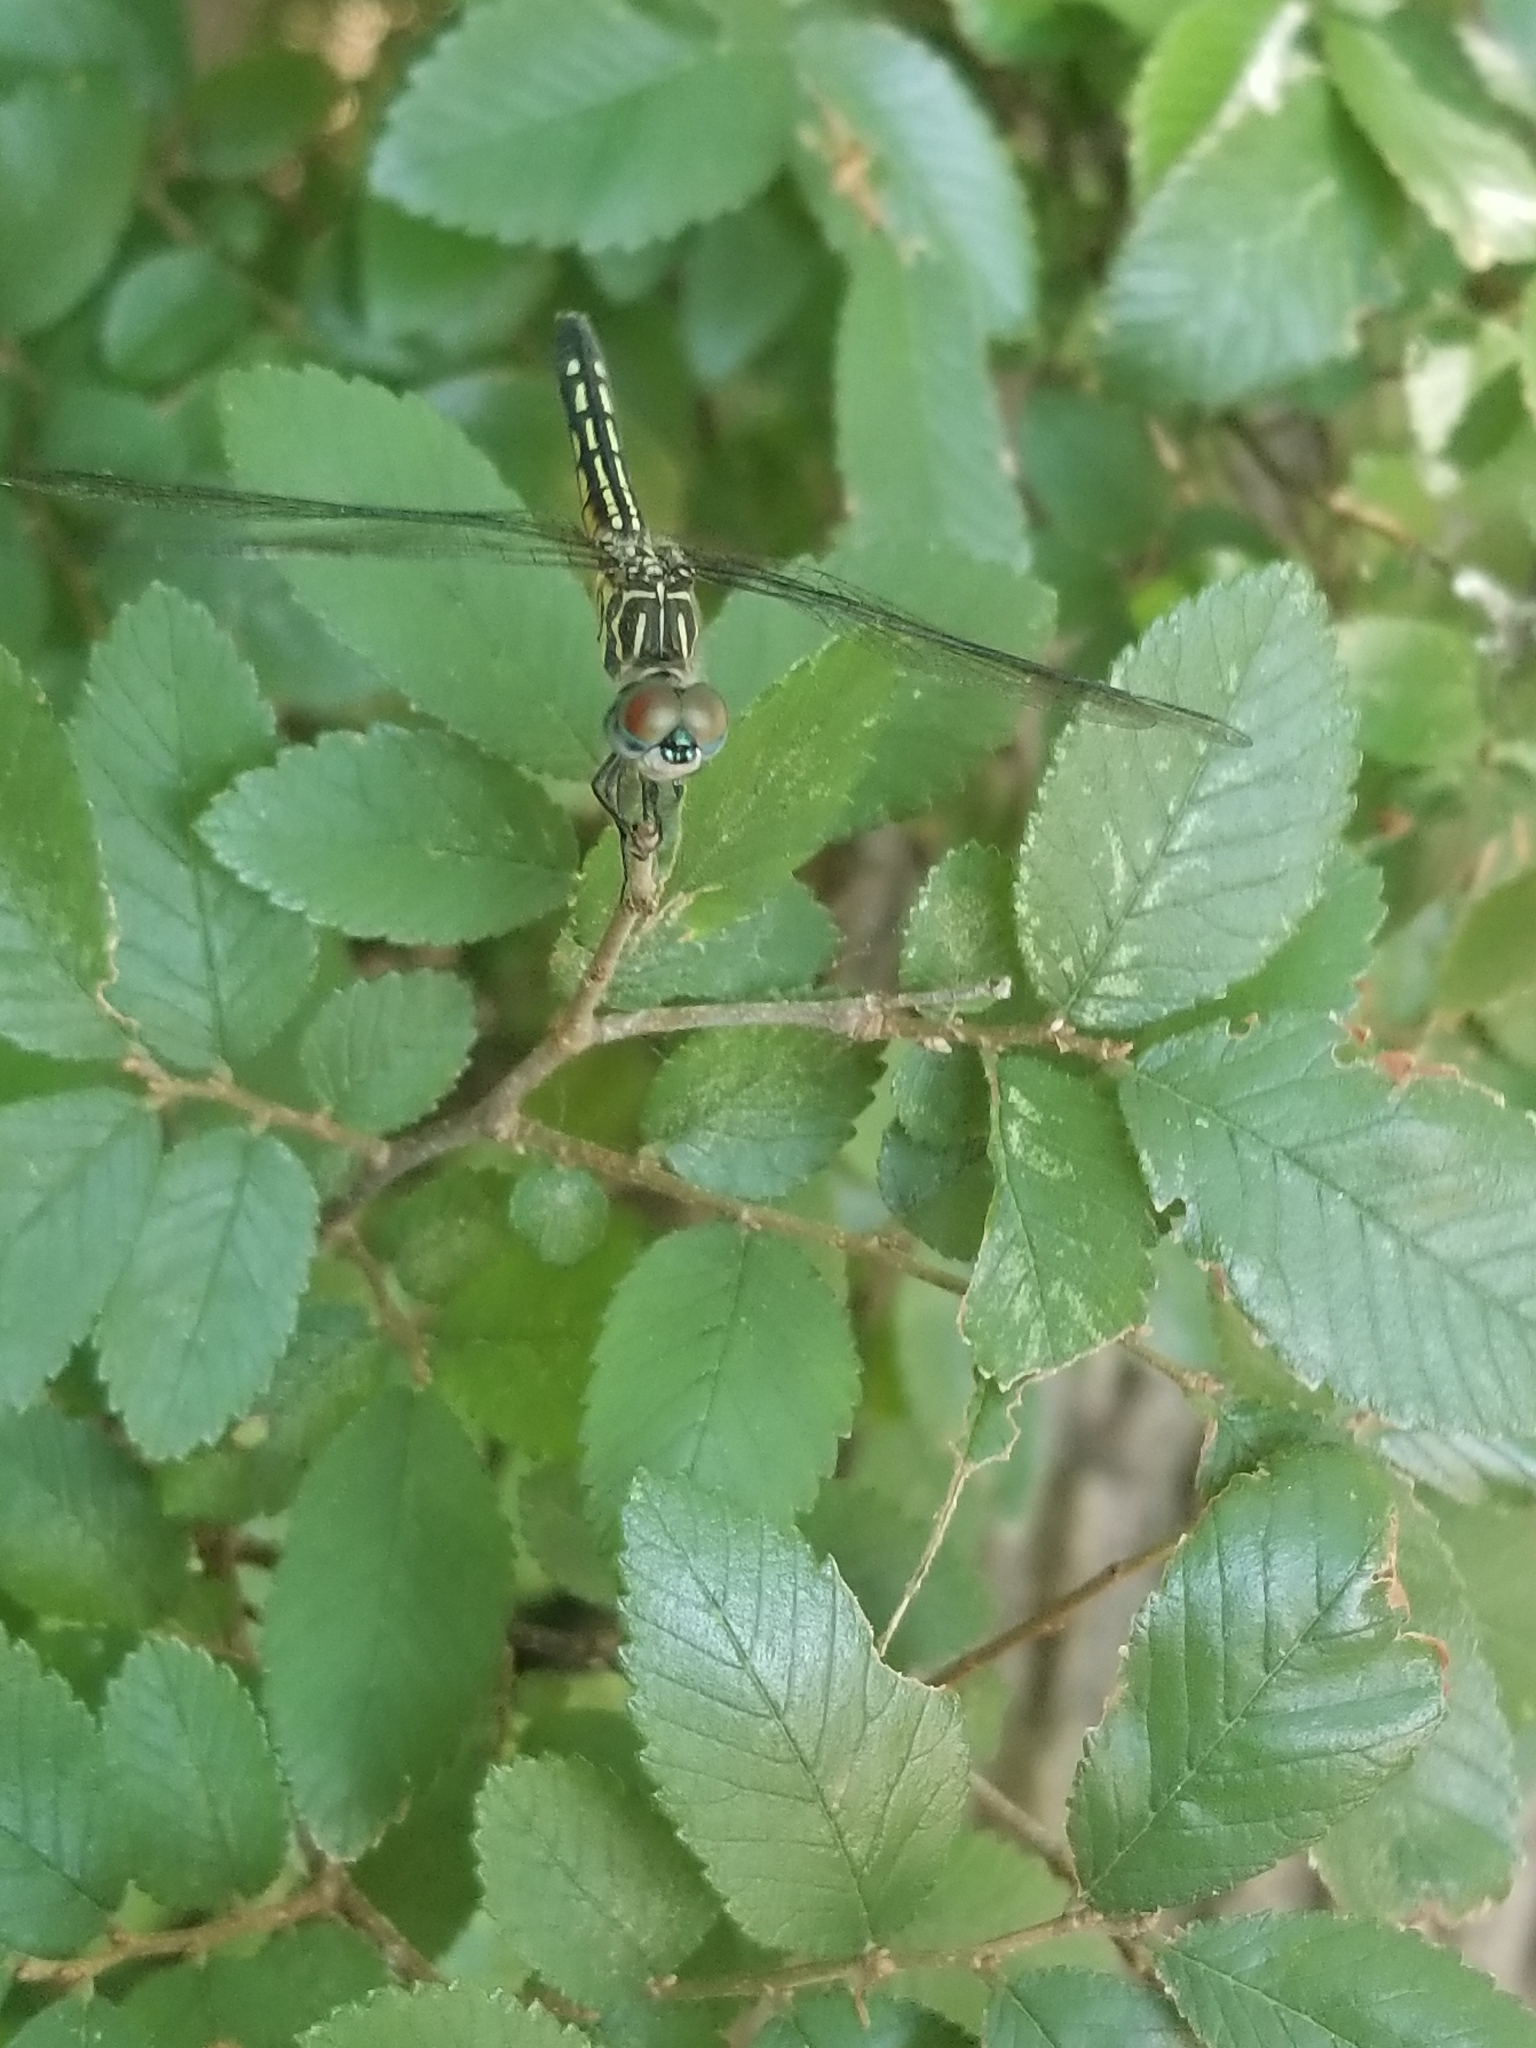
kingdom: Animalia
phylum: Arthropoda
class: Insecta
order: Odonata
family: Libellulidae
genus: Pachydiplax
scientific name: Pachydiplax longipennis
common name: Blue dasher
